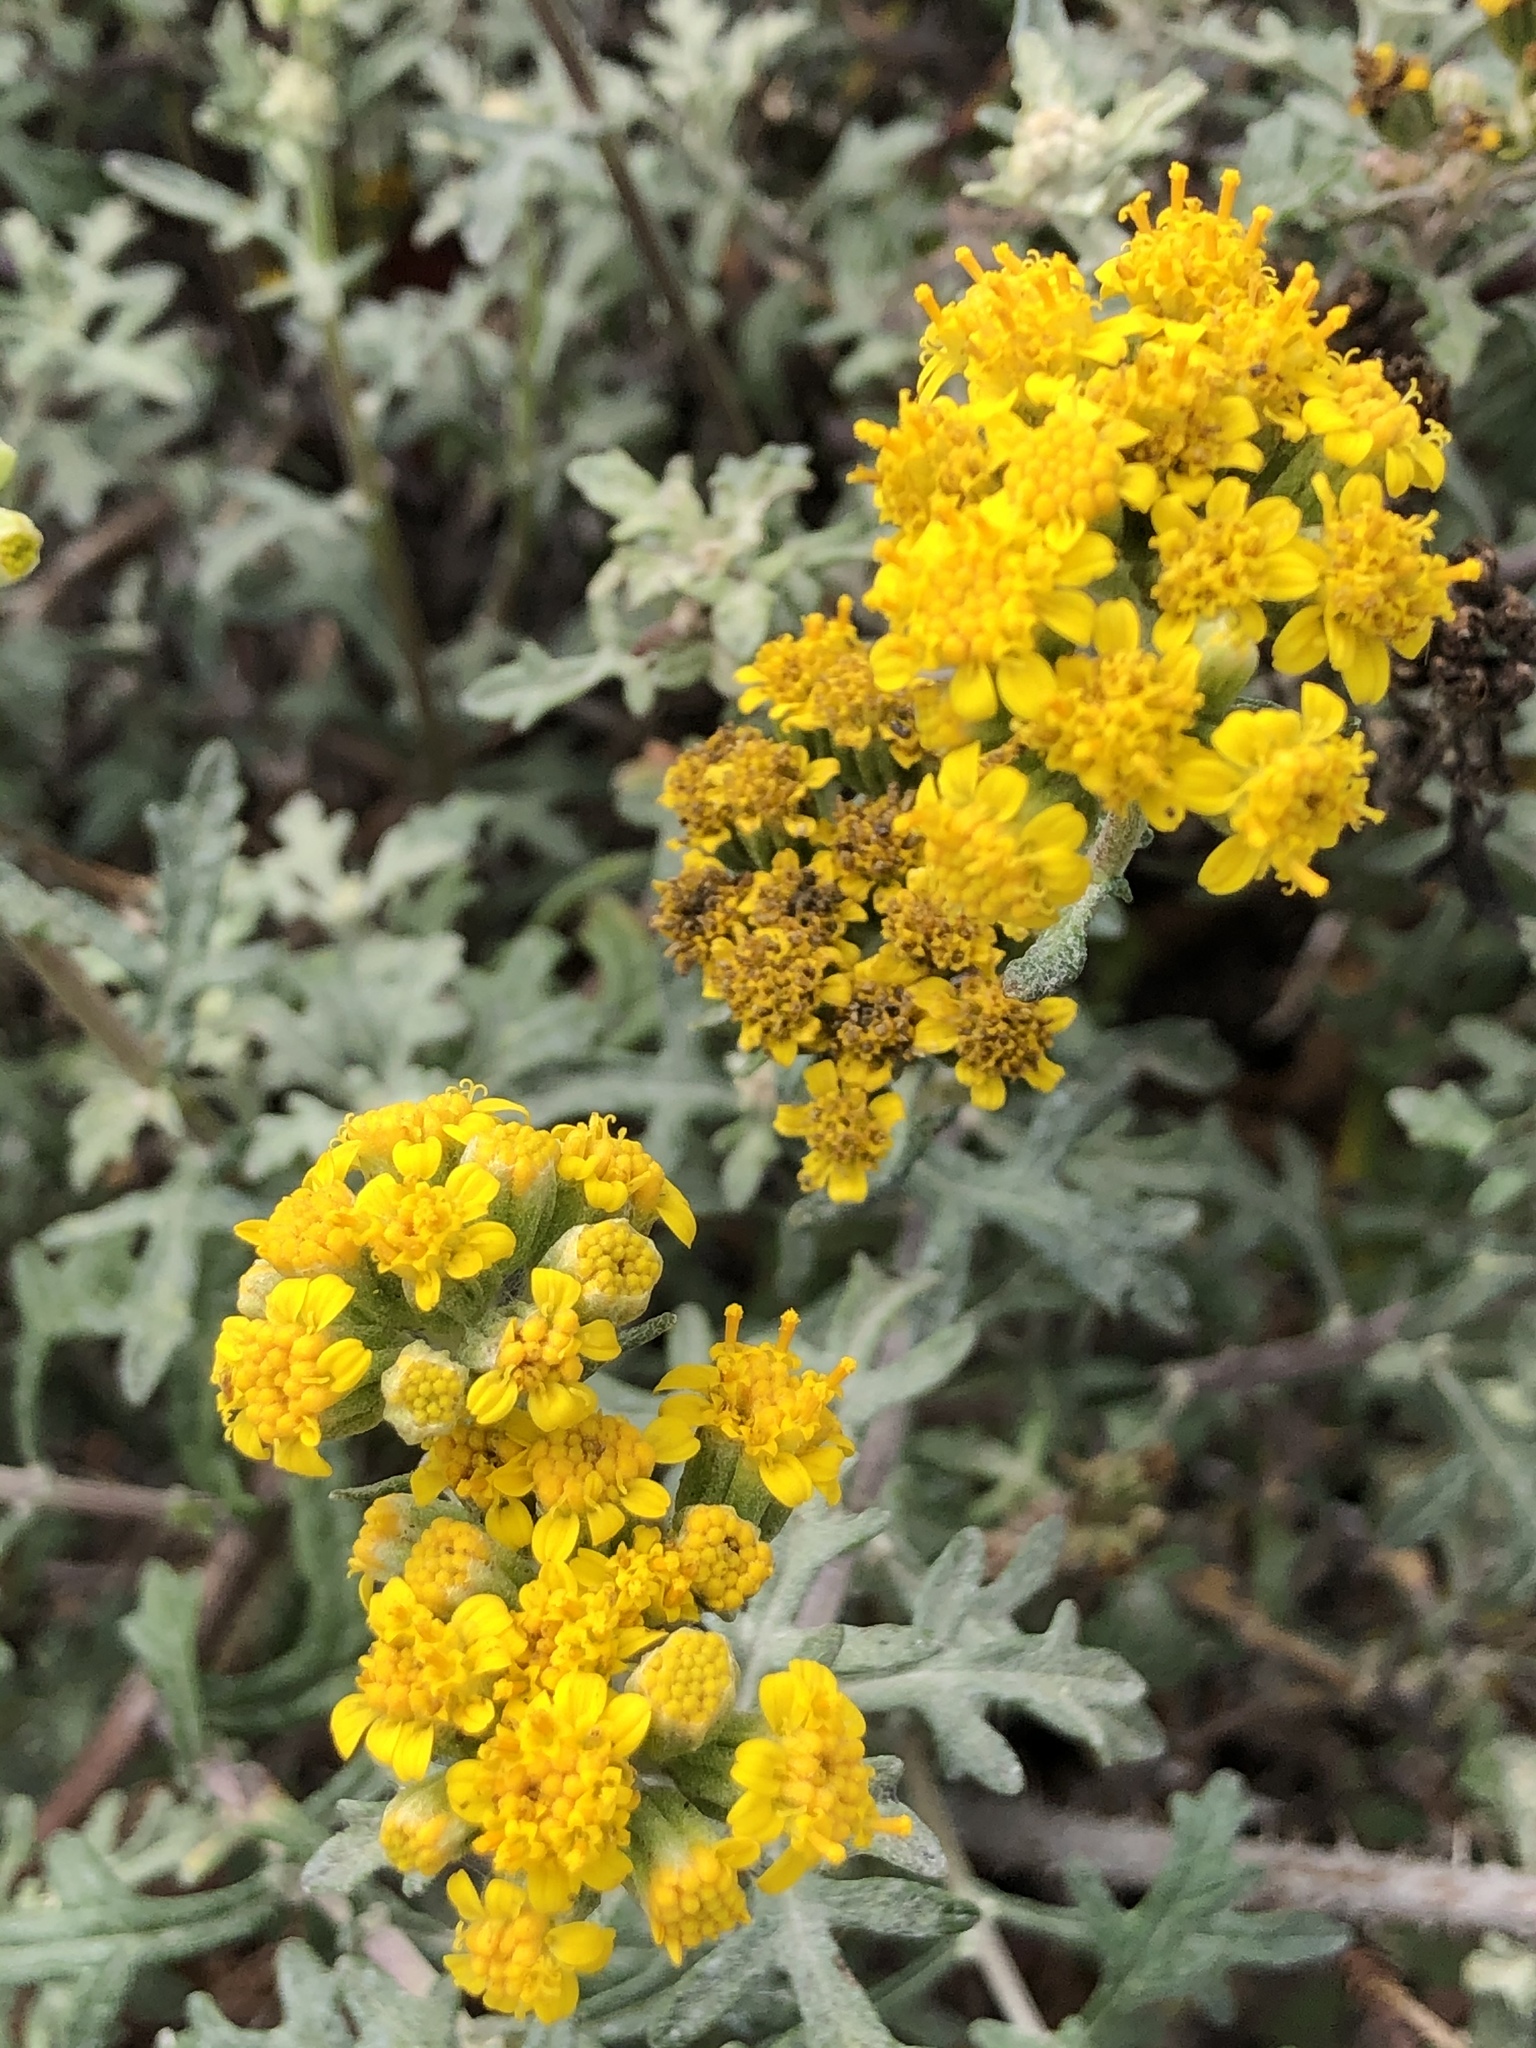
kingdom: Plantae
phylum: Tracheophyta
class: Magnoliopsida
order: Asterales
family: Asteraceae
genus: Eriophyllum
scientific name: Eriophyllum staechadifolium
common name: Lizardtail
